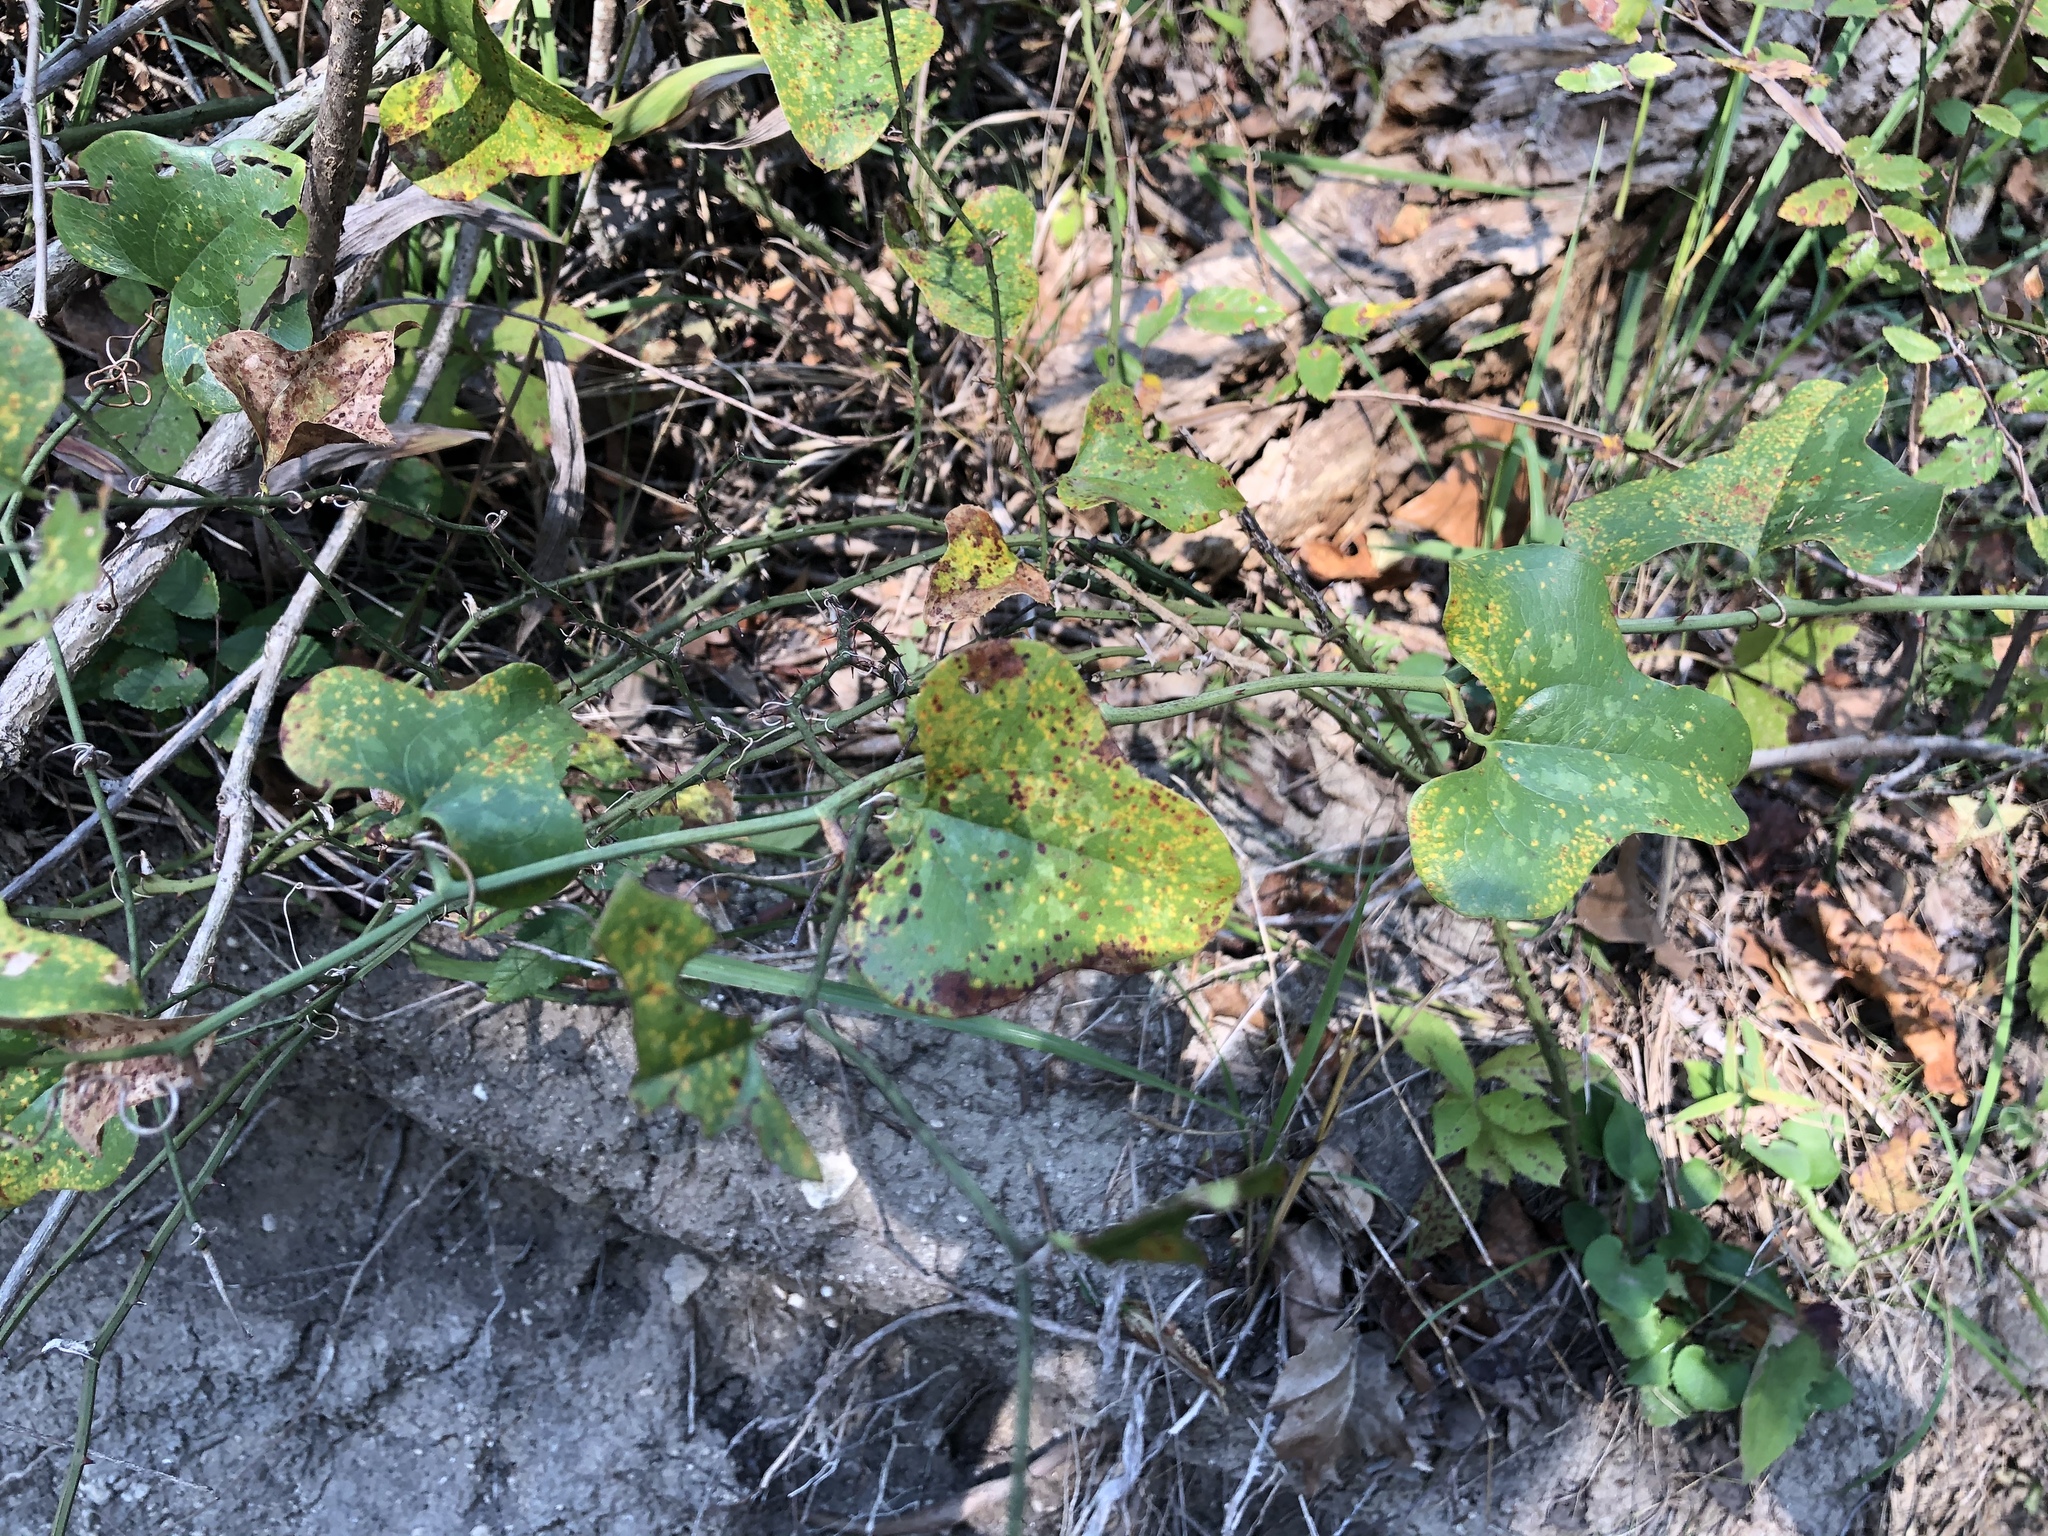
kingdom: Plantae
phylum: Tracheophyta
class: Liliopsida
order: Liliales
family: Smilacaceae
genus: Smilax
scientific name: Smilax bona-nox
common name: Catbrier
